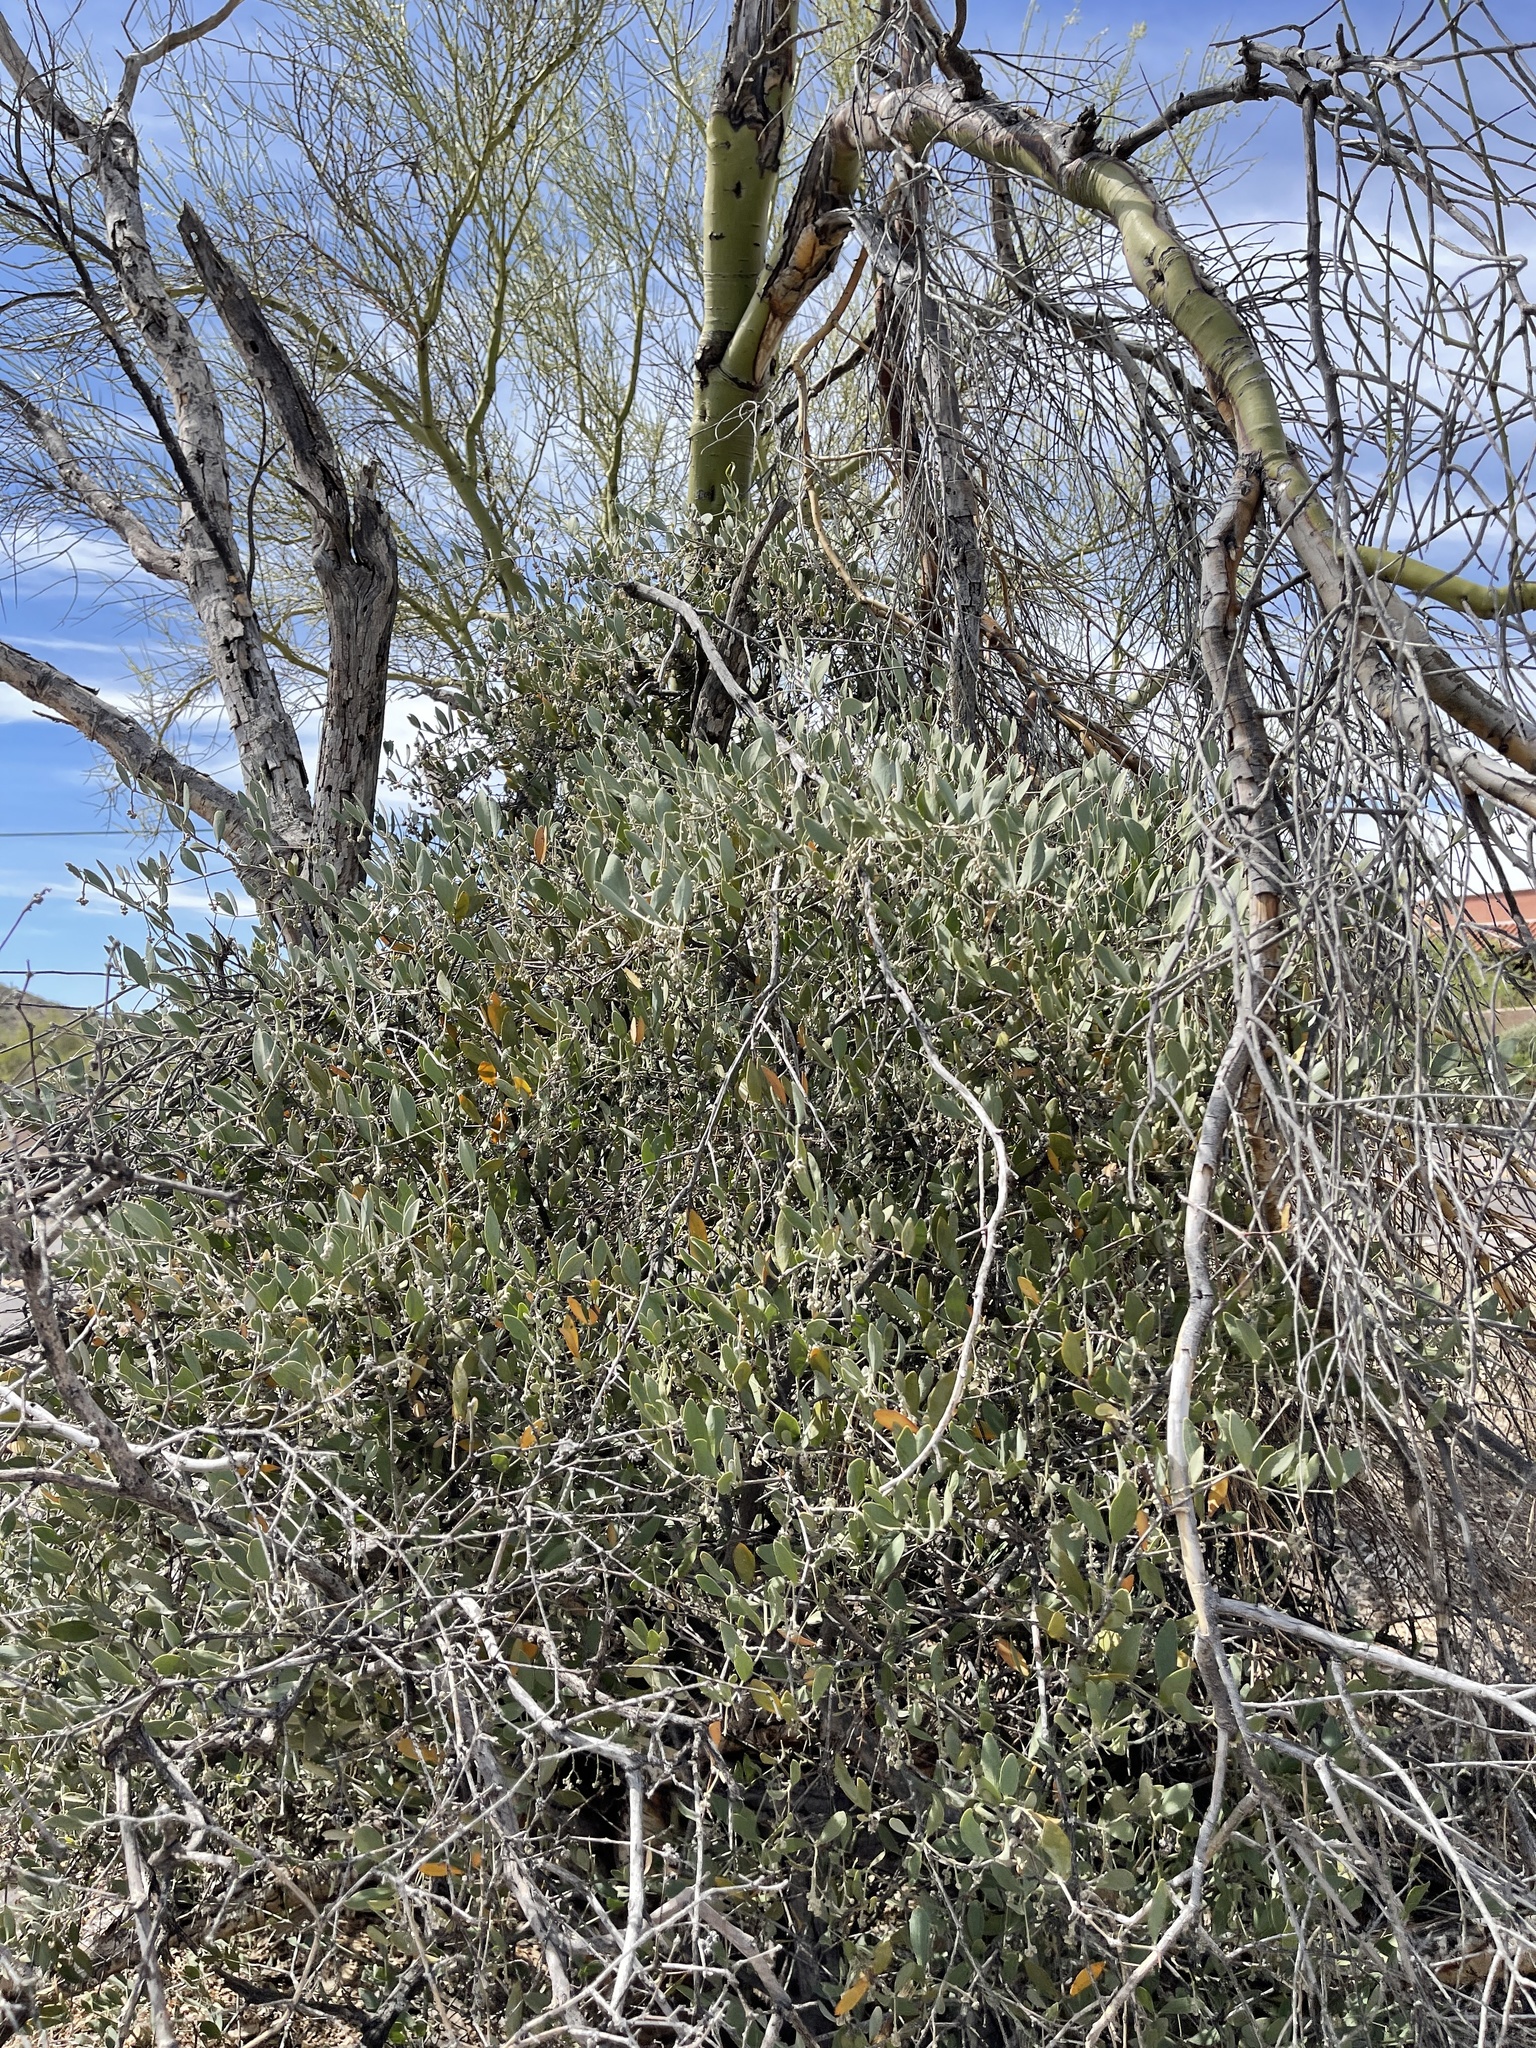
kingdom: Plantae
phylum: Tracheophyta
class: Magnoliopsida
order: Caryophyllales
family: Simmondsiaceae
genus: Simmondsia
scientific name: Simmondsia chinensis
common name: Jojoba
